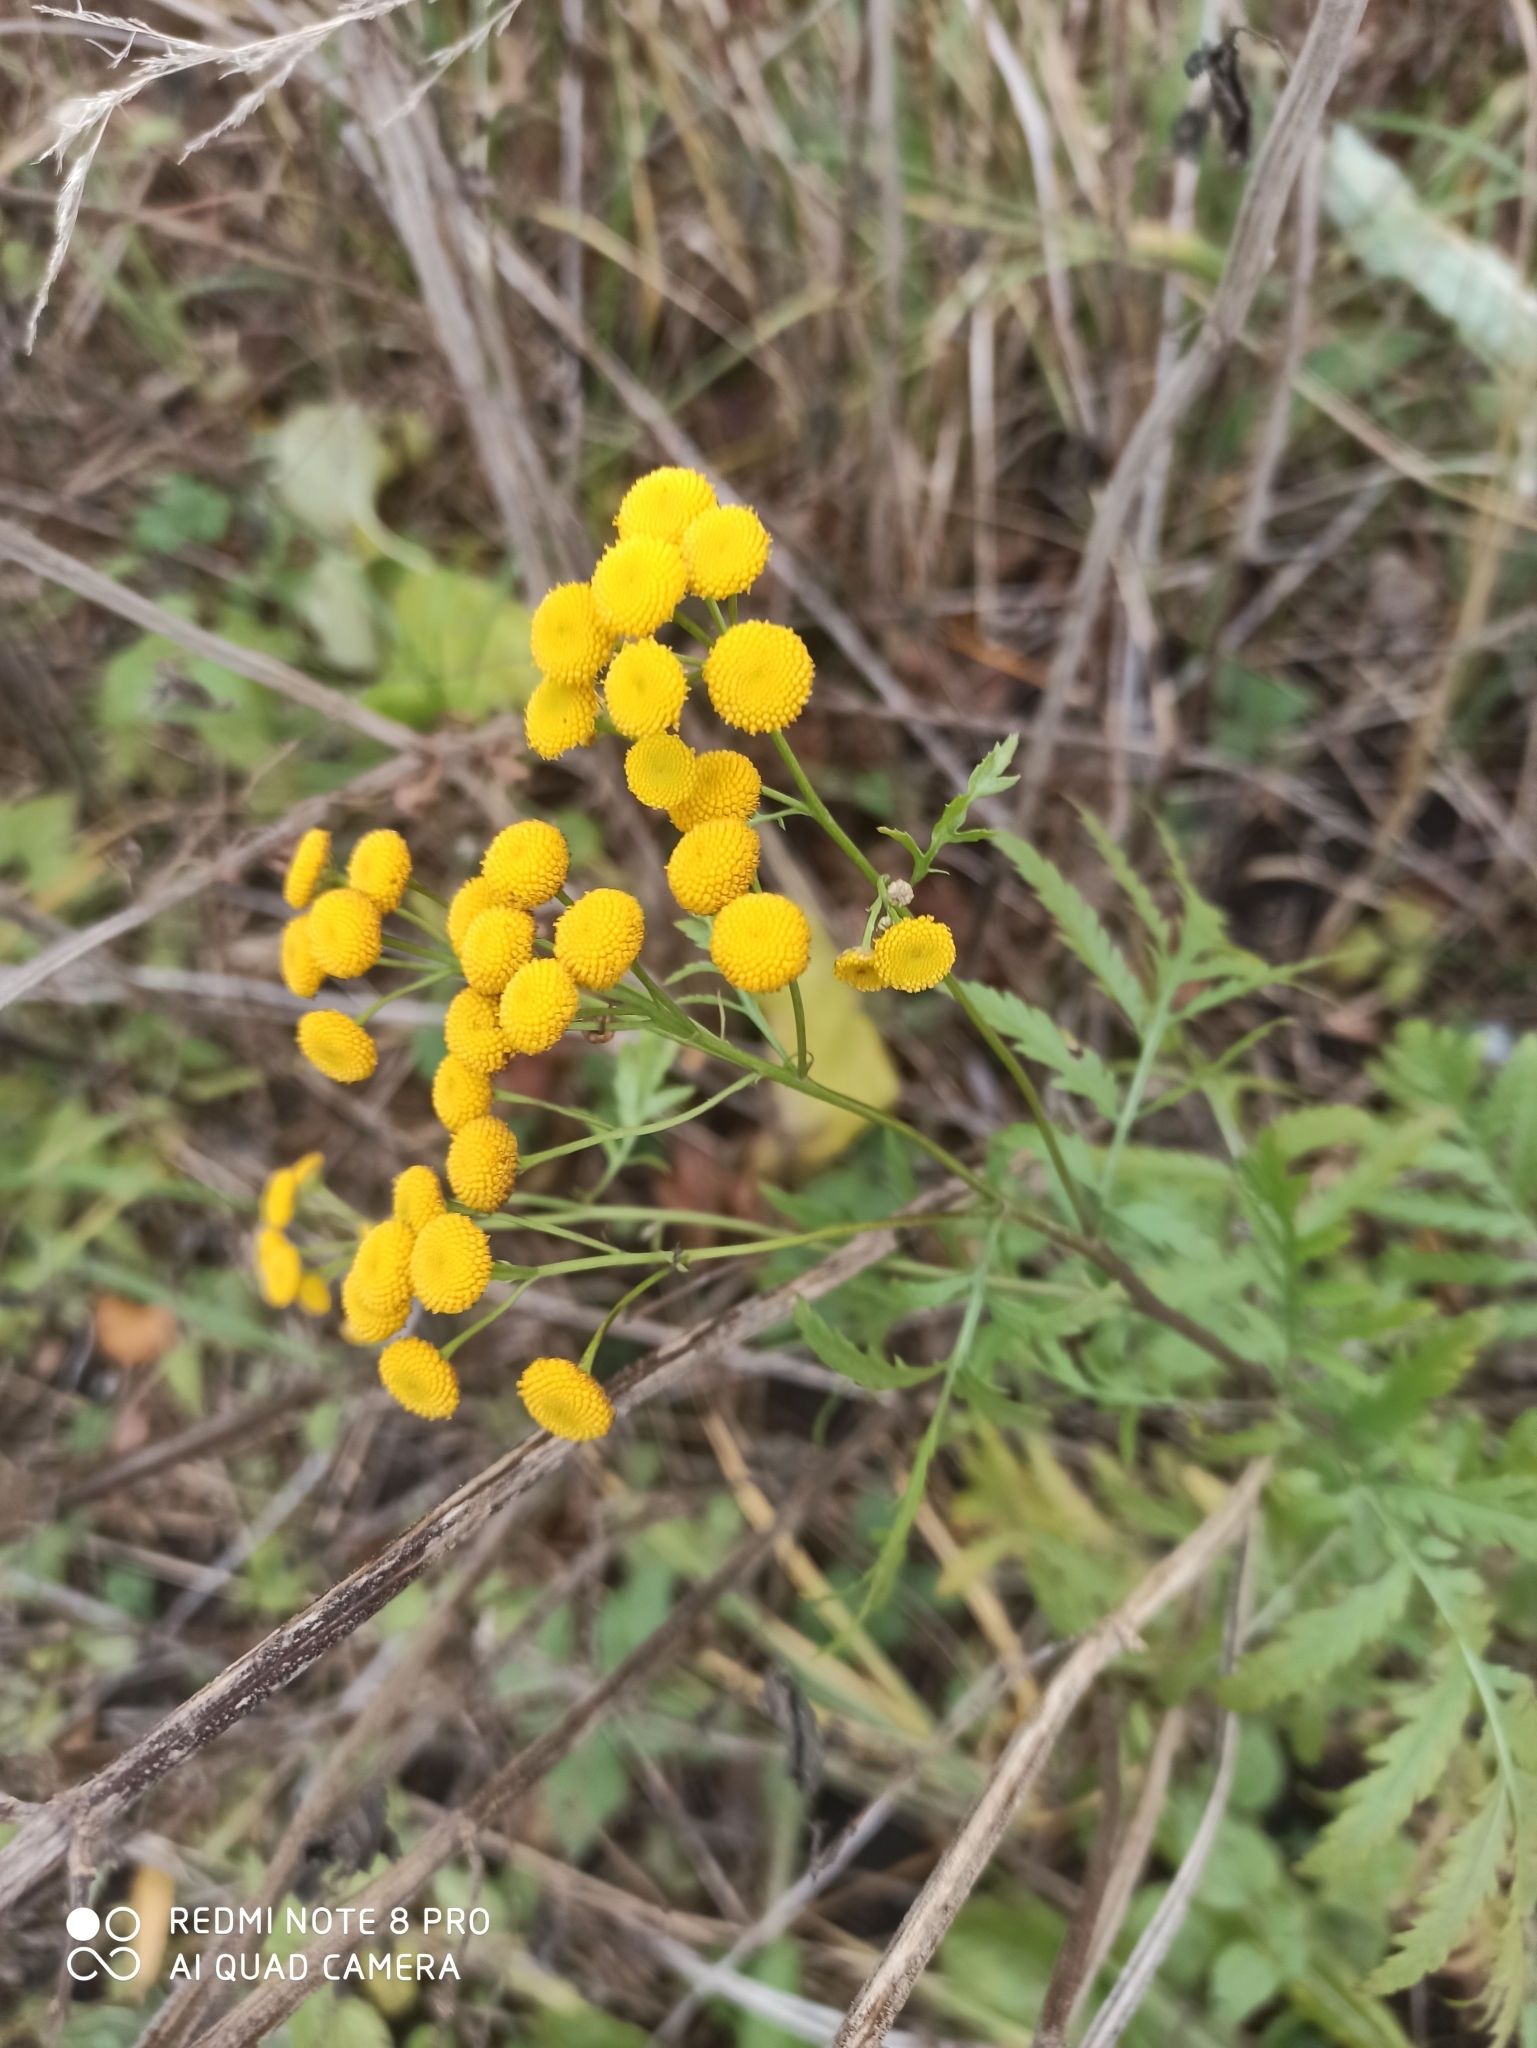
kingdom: Plantae
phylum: Tracheophyta
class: Magnoliopsida
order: Asterales
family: Asteraceae
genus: Tanacetum
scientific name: Tanacetum vulgare
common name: Common tansy
